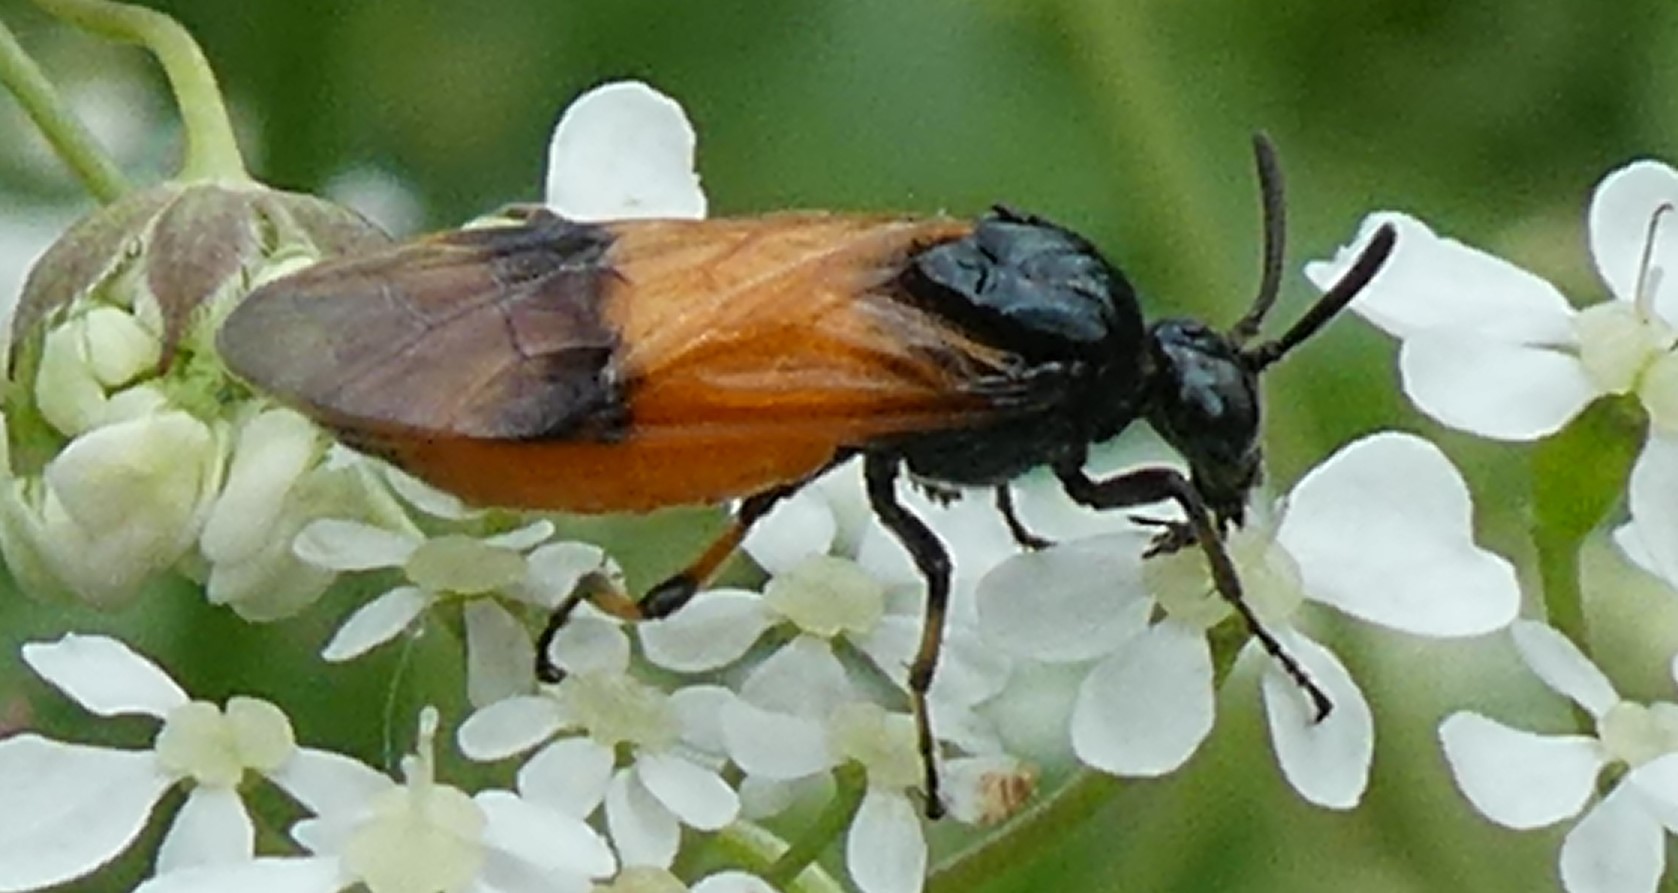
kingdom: Animalia
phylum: Arthropoda
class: Insecta
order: Hymenoptera
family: Argidae
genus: Arge
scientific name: Arge cyanocrocea
